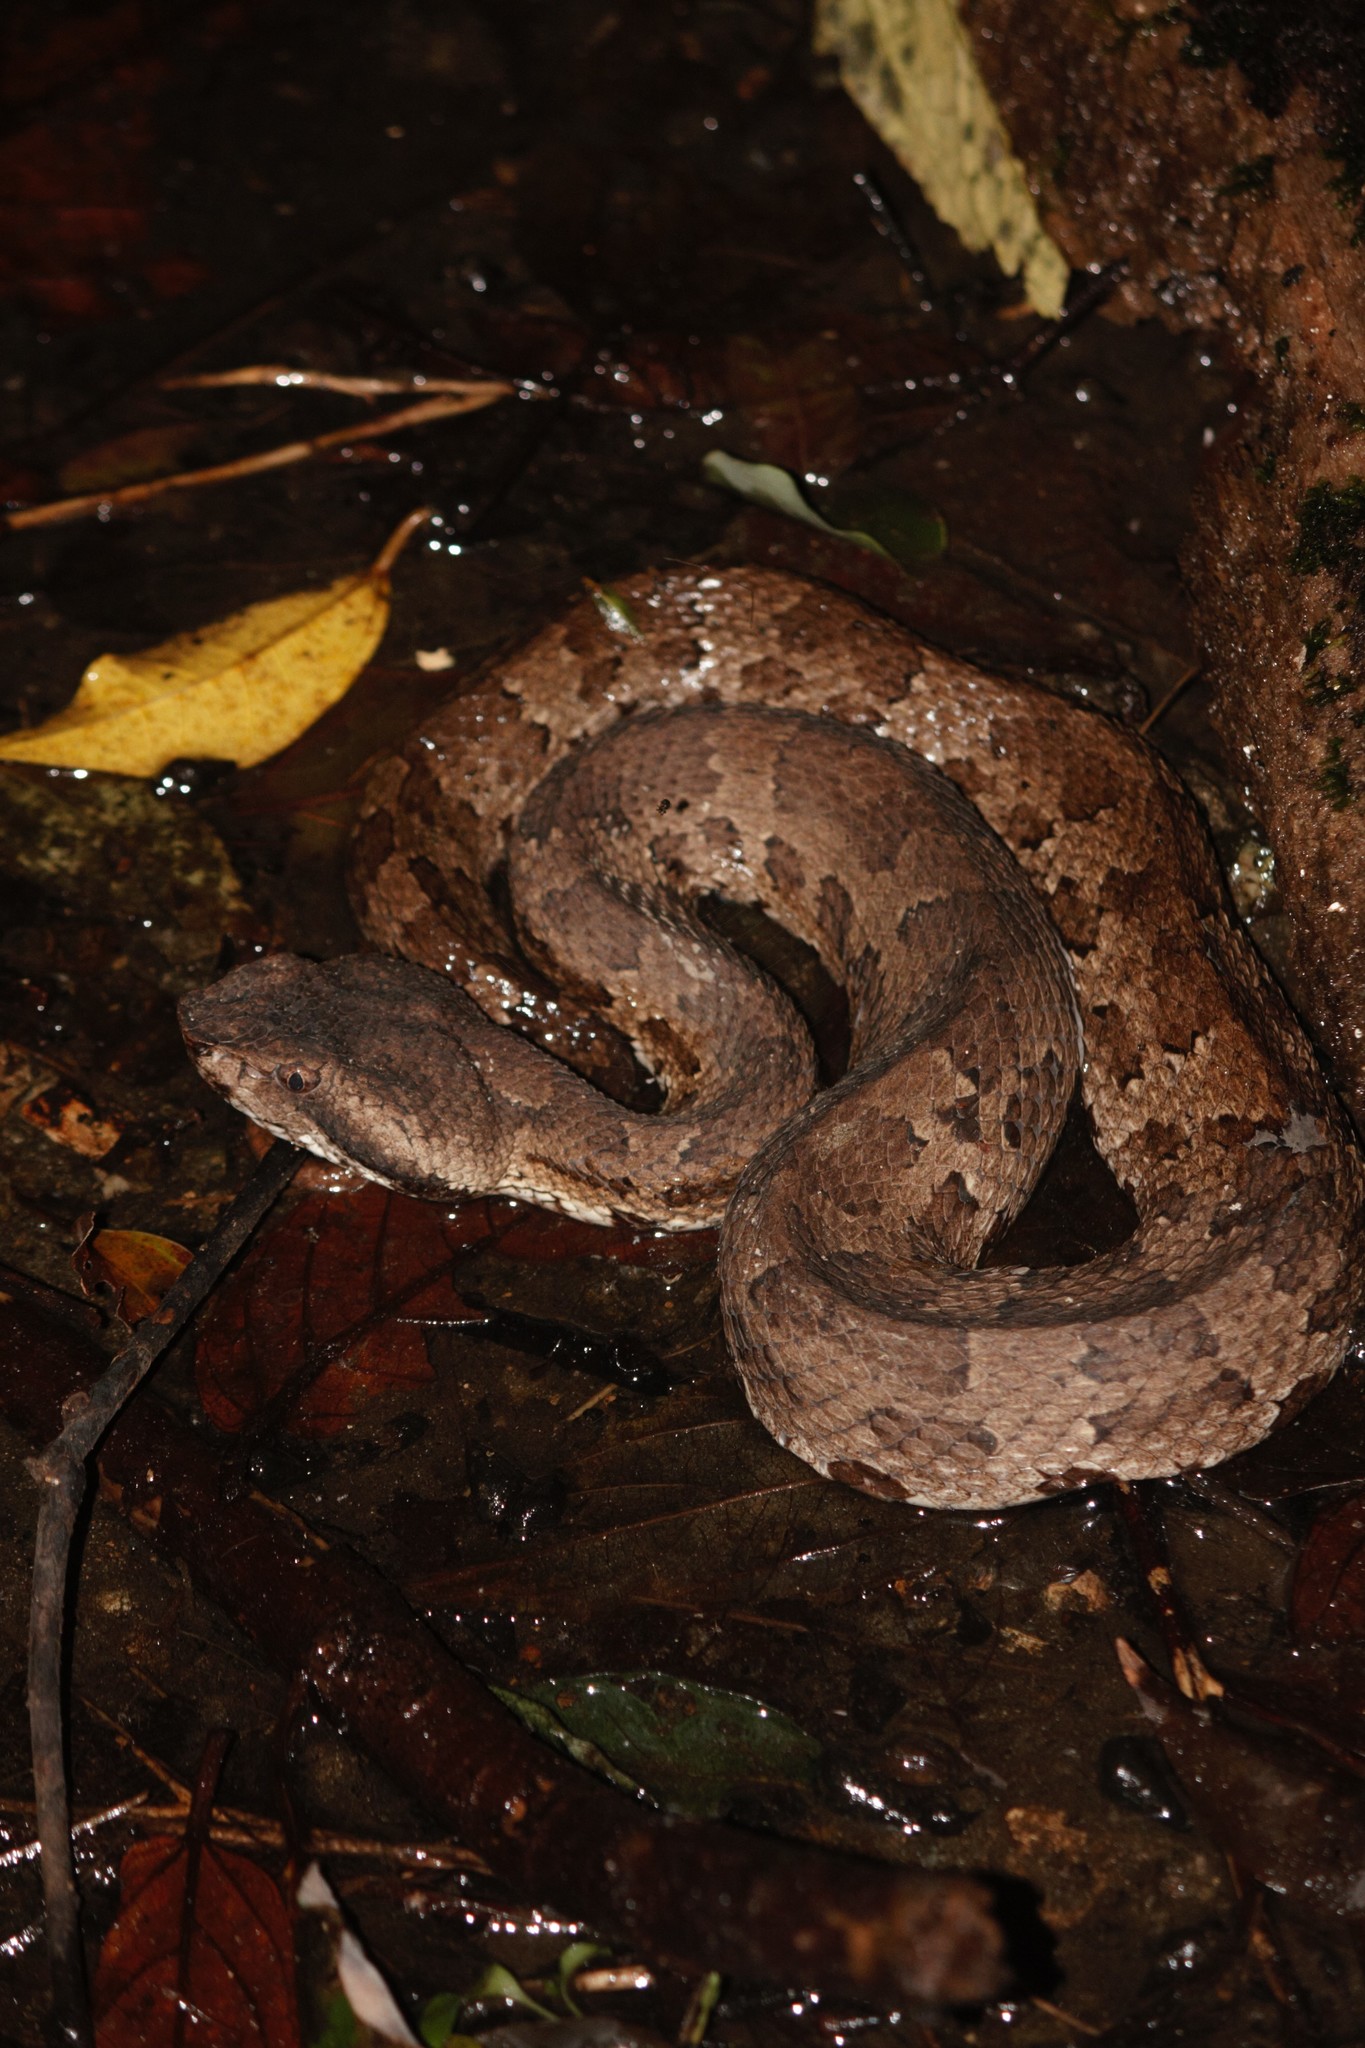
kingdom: Animalia
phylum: Chordata
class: Squamata
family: Viperidae
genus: Ovophis
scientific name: Ovophis okinavensis
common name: Okinawa pitviper
